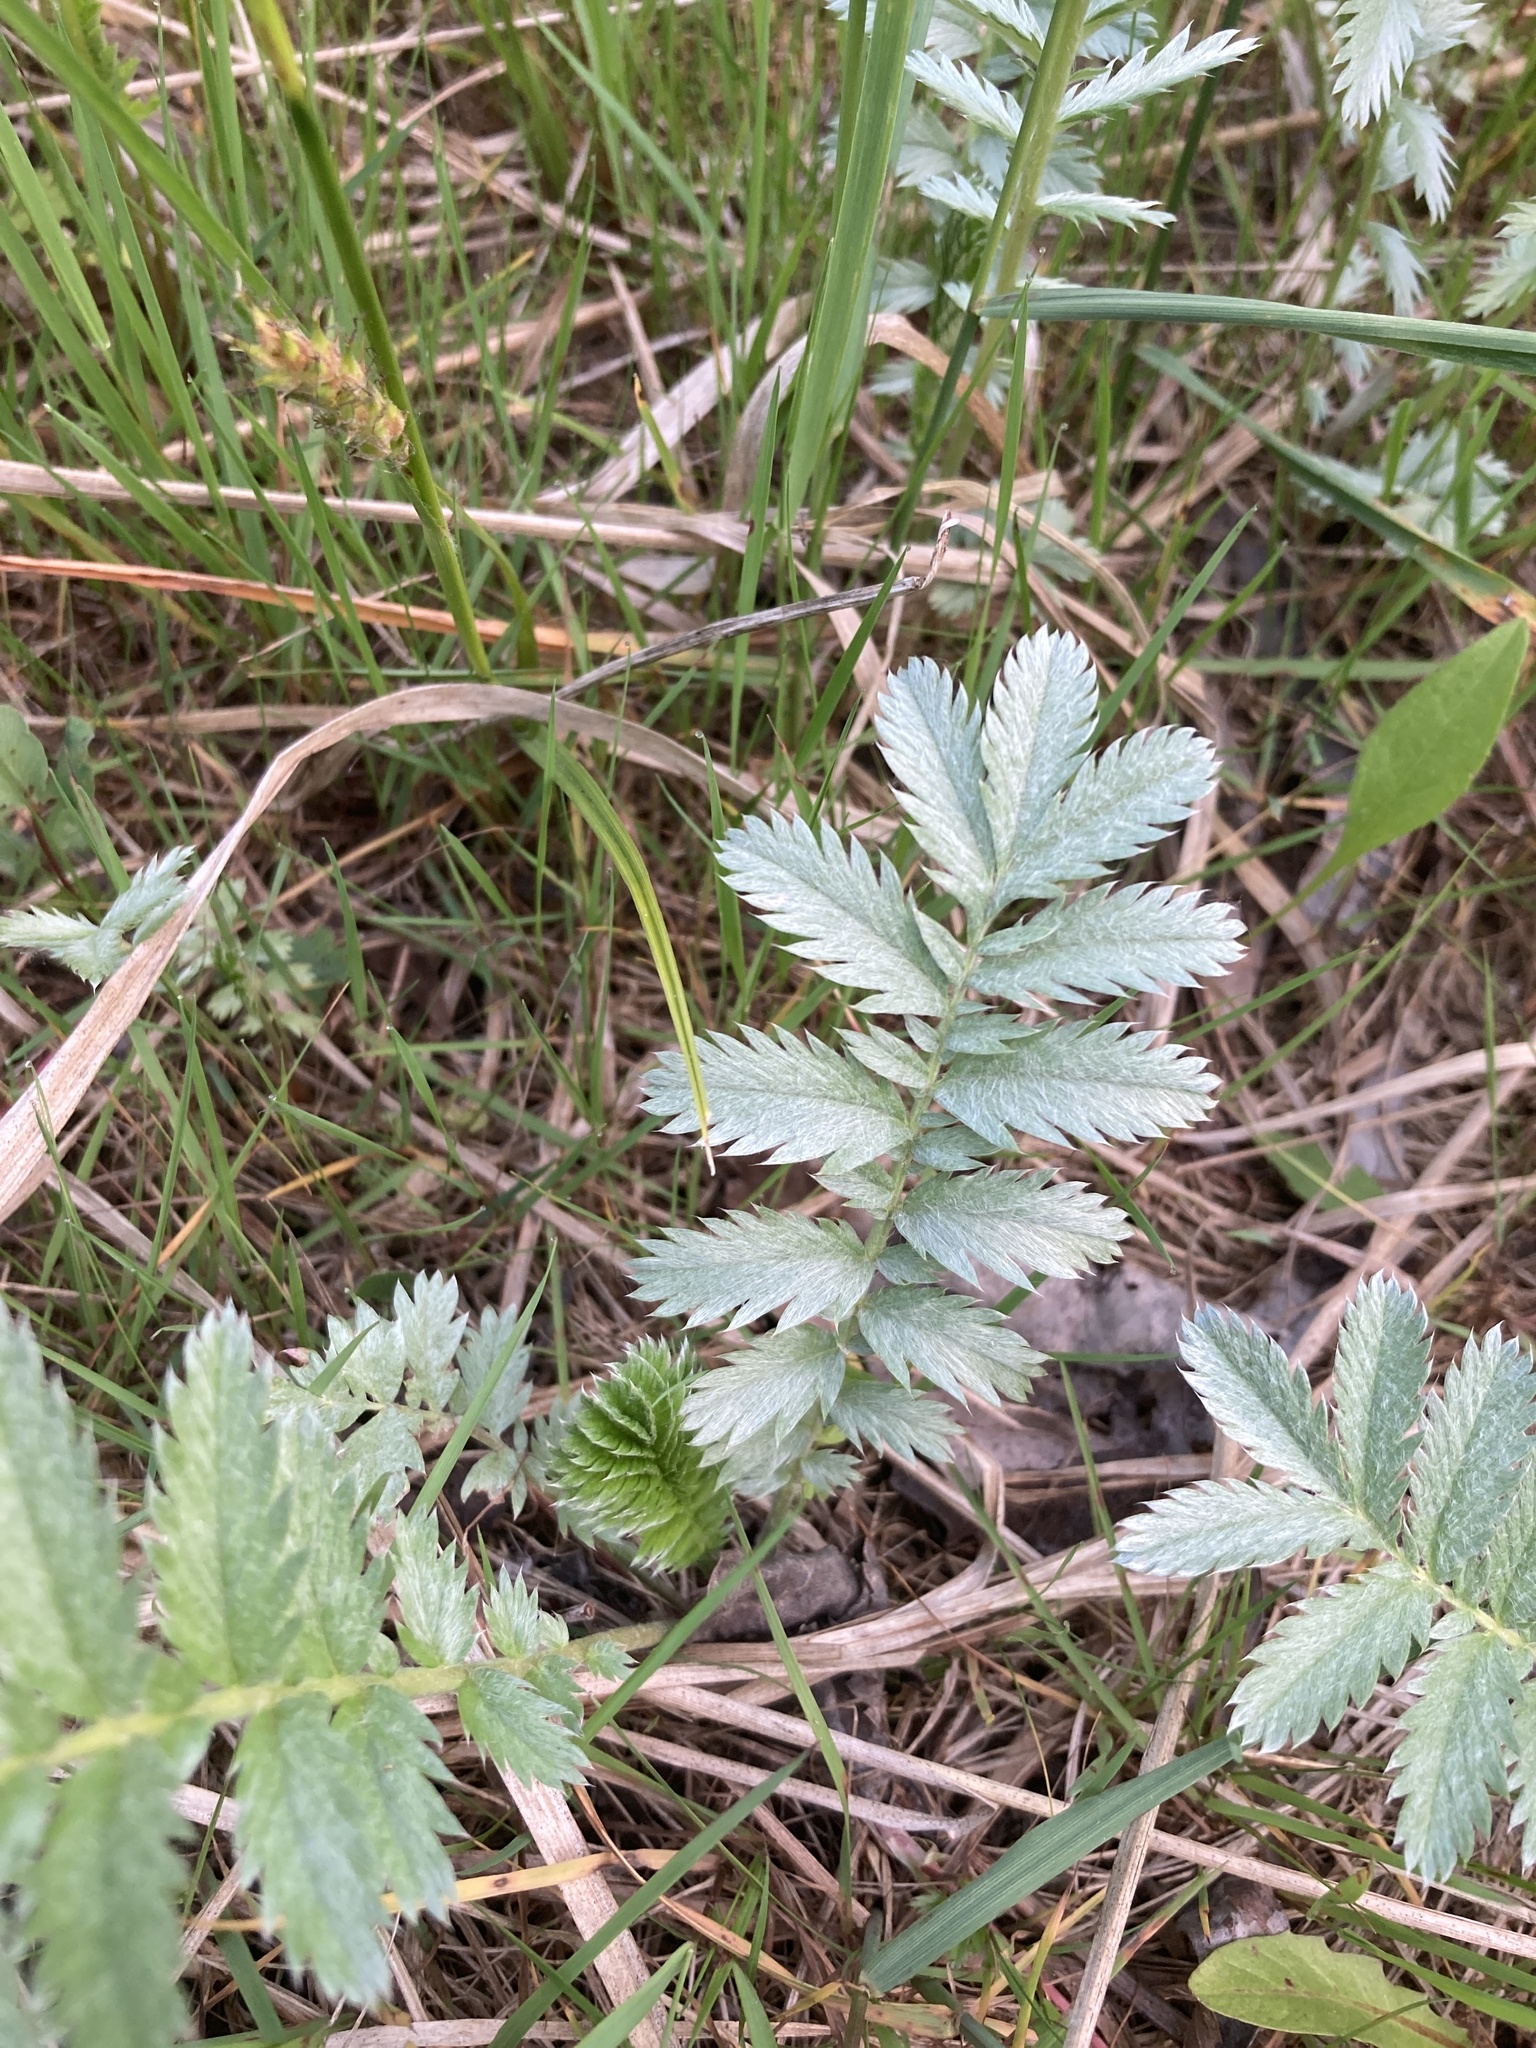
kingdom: Plantae
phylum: Tracheophyta
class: Magnoliopsida
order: Rosales
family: Rosaceae
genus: Argentina
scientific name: Argentina anserina
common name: Common silverweed
